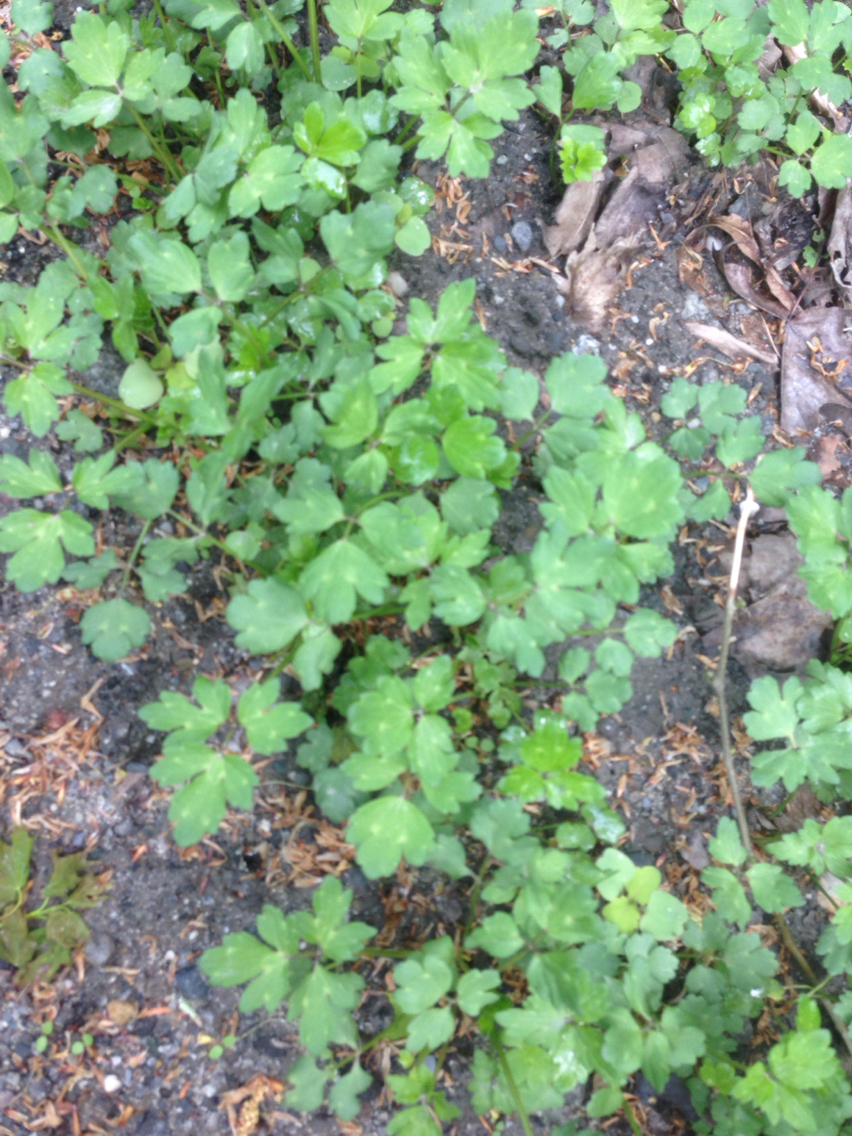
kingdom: Plantae
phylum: Tracheophyta
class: Magnoliopsida
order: Ranunculales
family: Ranunculaceae
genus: Ranunculus
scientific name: Ranunculus repens
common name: Creeping buttercup
